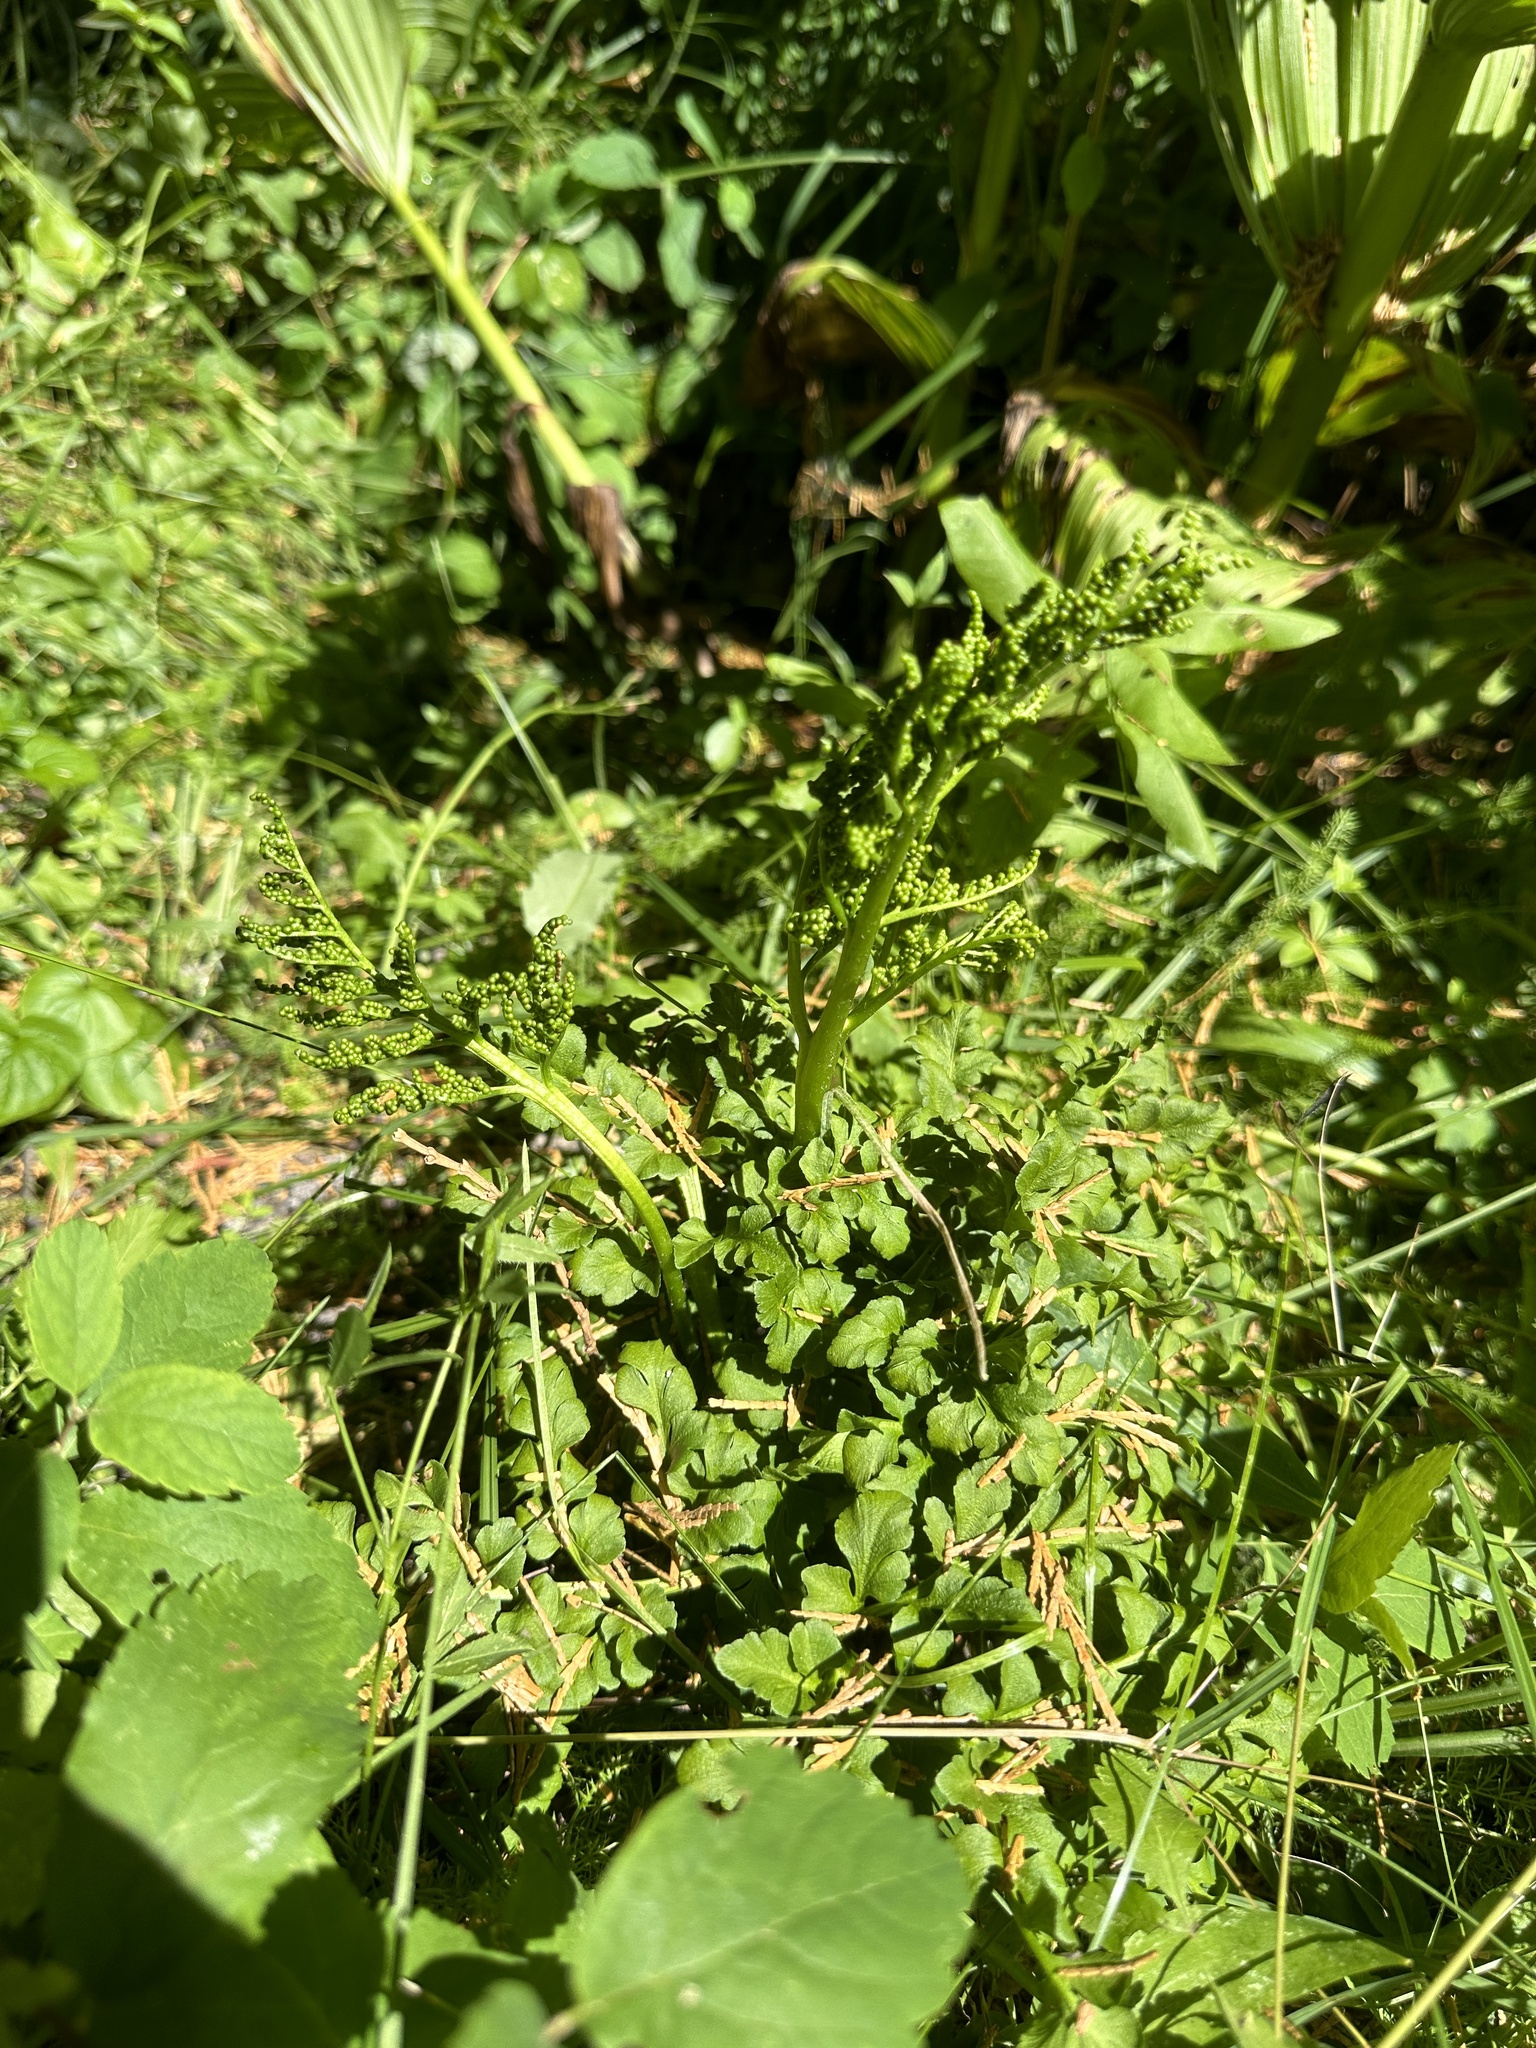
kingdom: Plantae
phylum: Tracheophyta
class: Polypodiopsida
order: Ophioglossales
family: Ophioglossaceae
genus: Sceptridium
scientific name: Sceptridium multifidum
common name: Leathery grape fern
